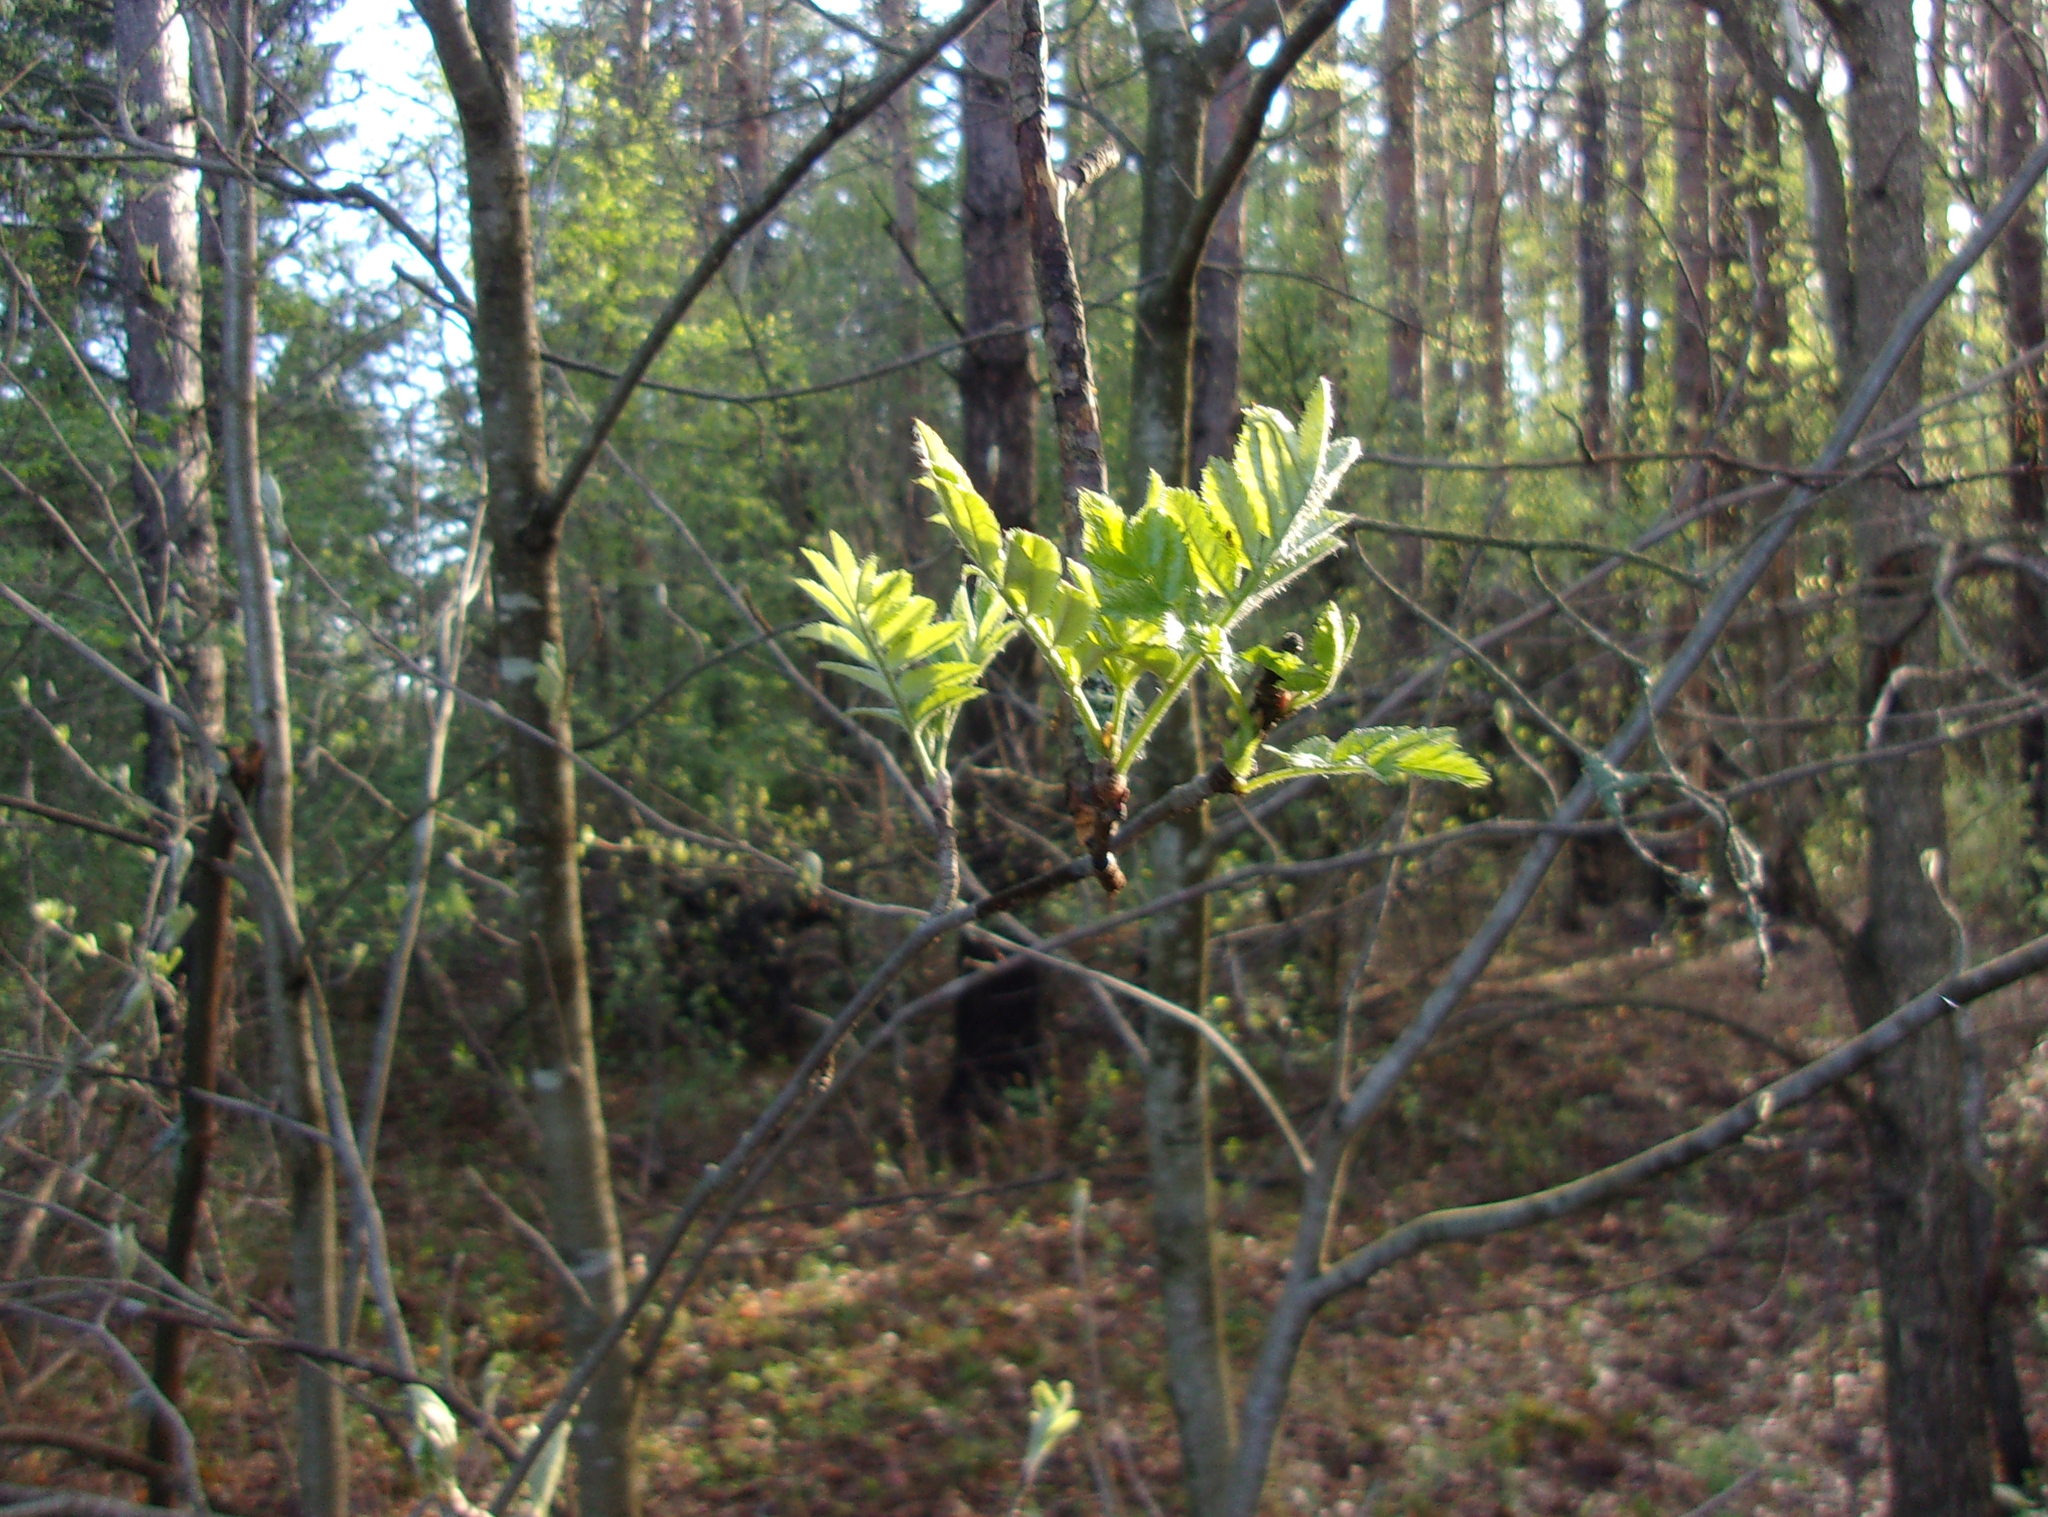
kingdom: Plantae
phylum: Tracheophyta
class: Magnoliopsida
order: Rosales
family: Rosaceae
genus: Sorbus
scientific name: Sorbus aucuparia
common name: Rowan
